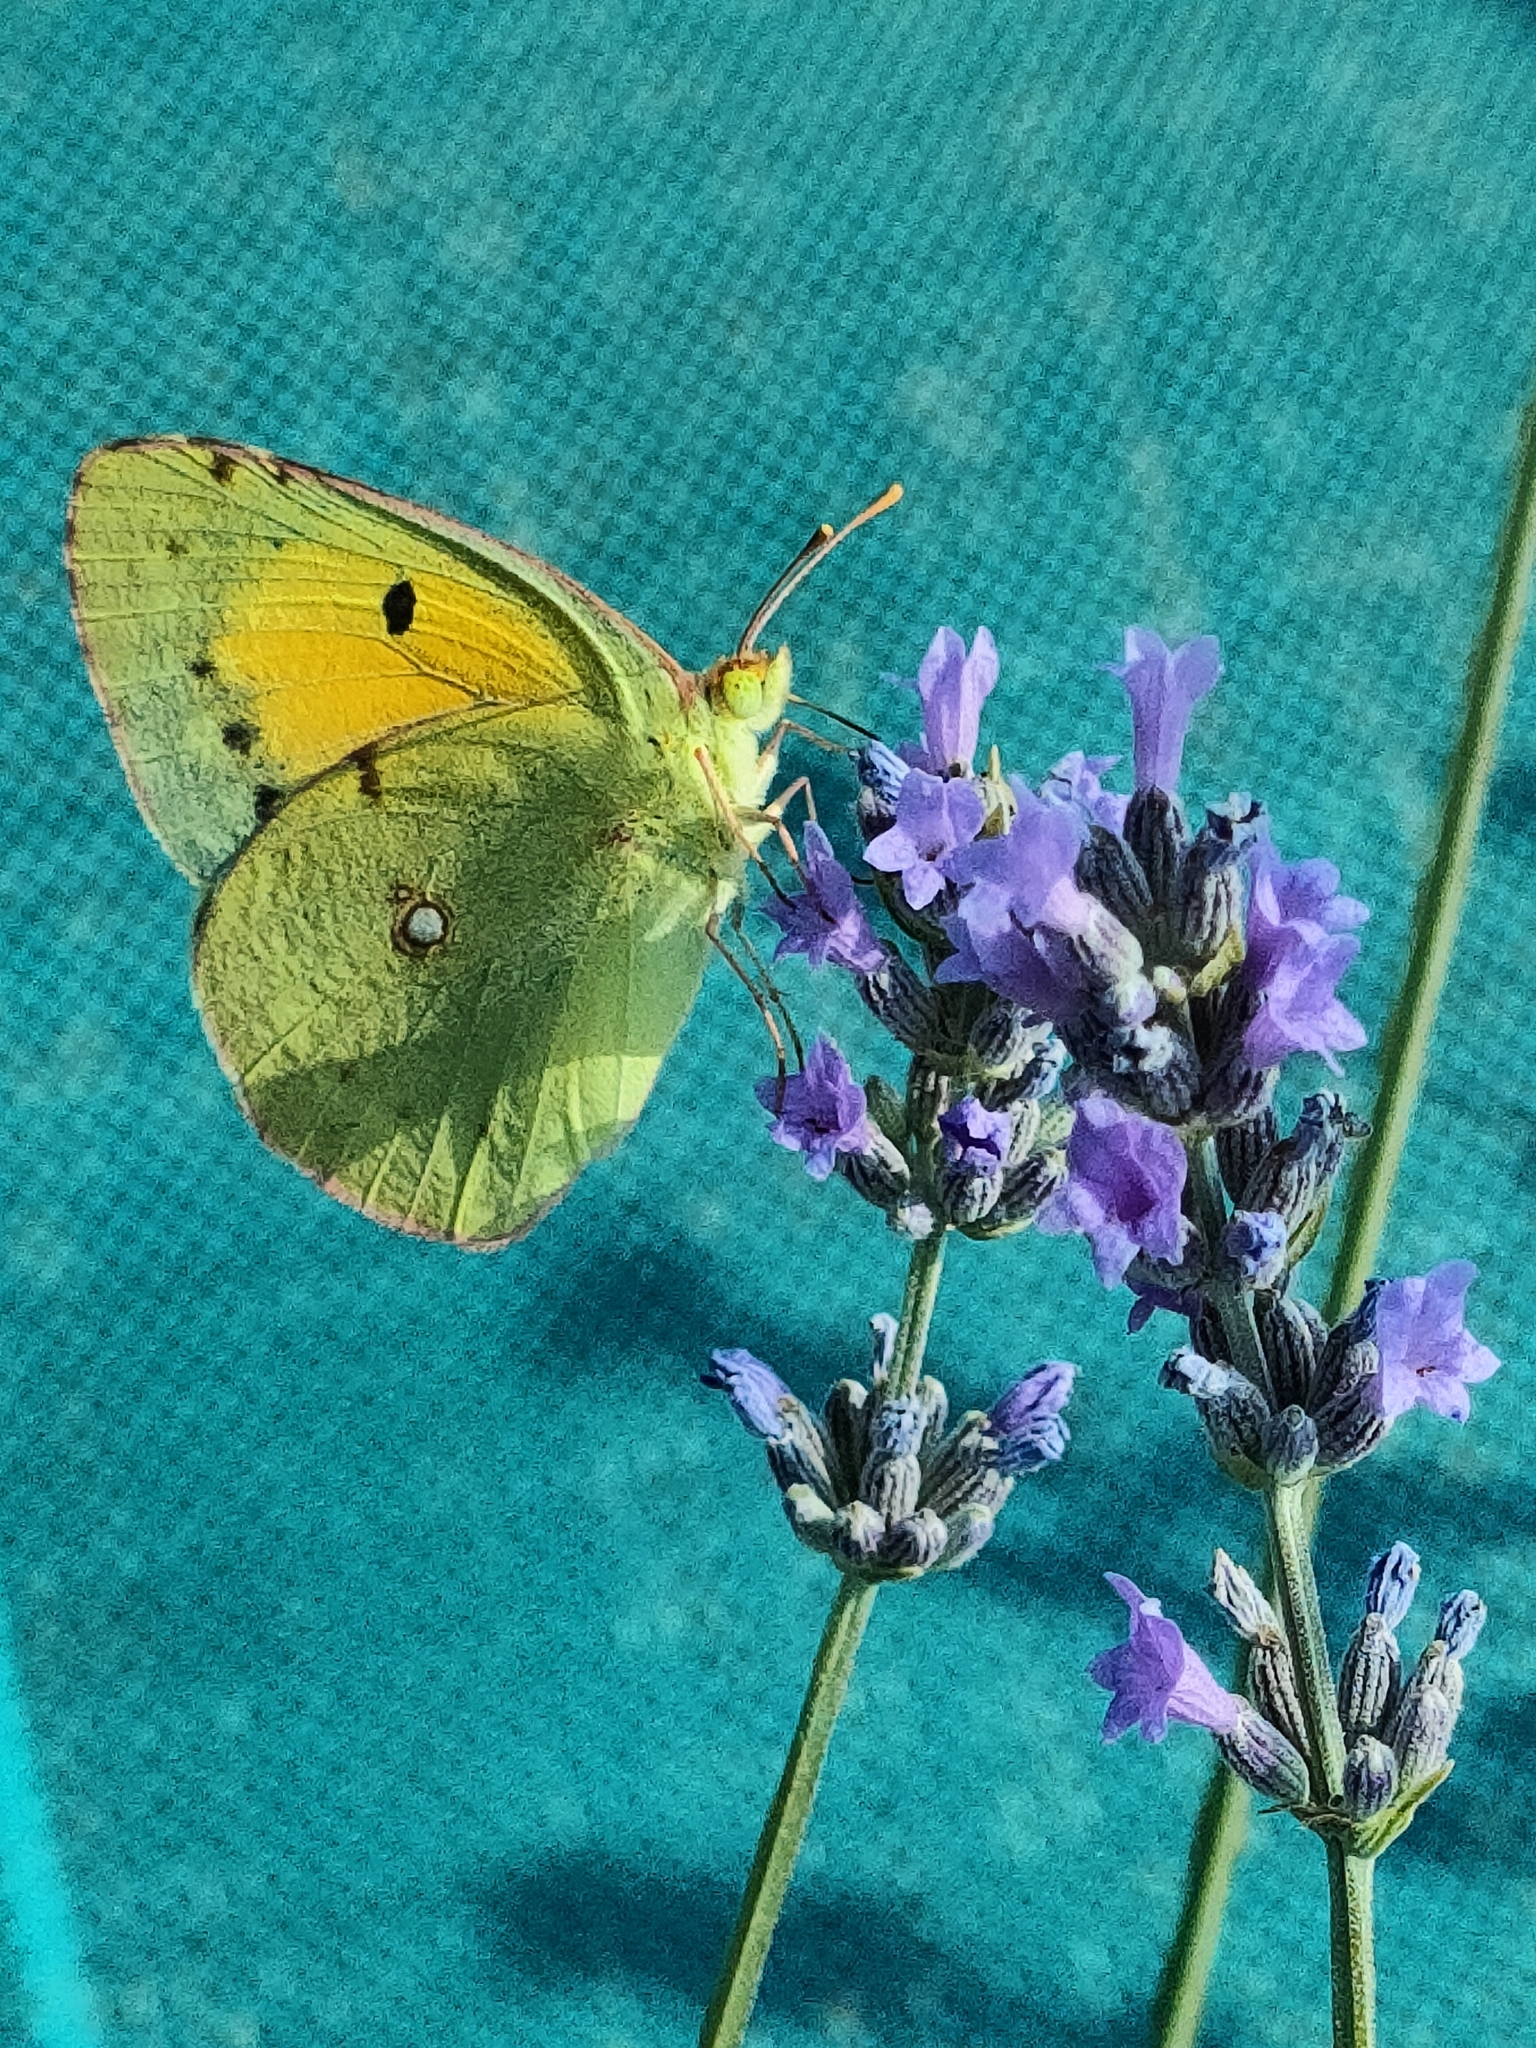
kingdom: Animalia
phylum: Arthropoda
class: Insecta
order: Lepidoptera
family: Pieridae
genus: Colias
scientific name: Colias croceus
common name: Clouded yellow
